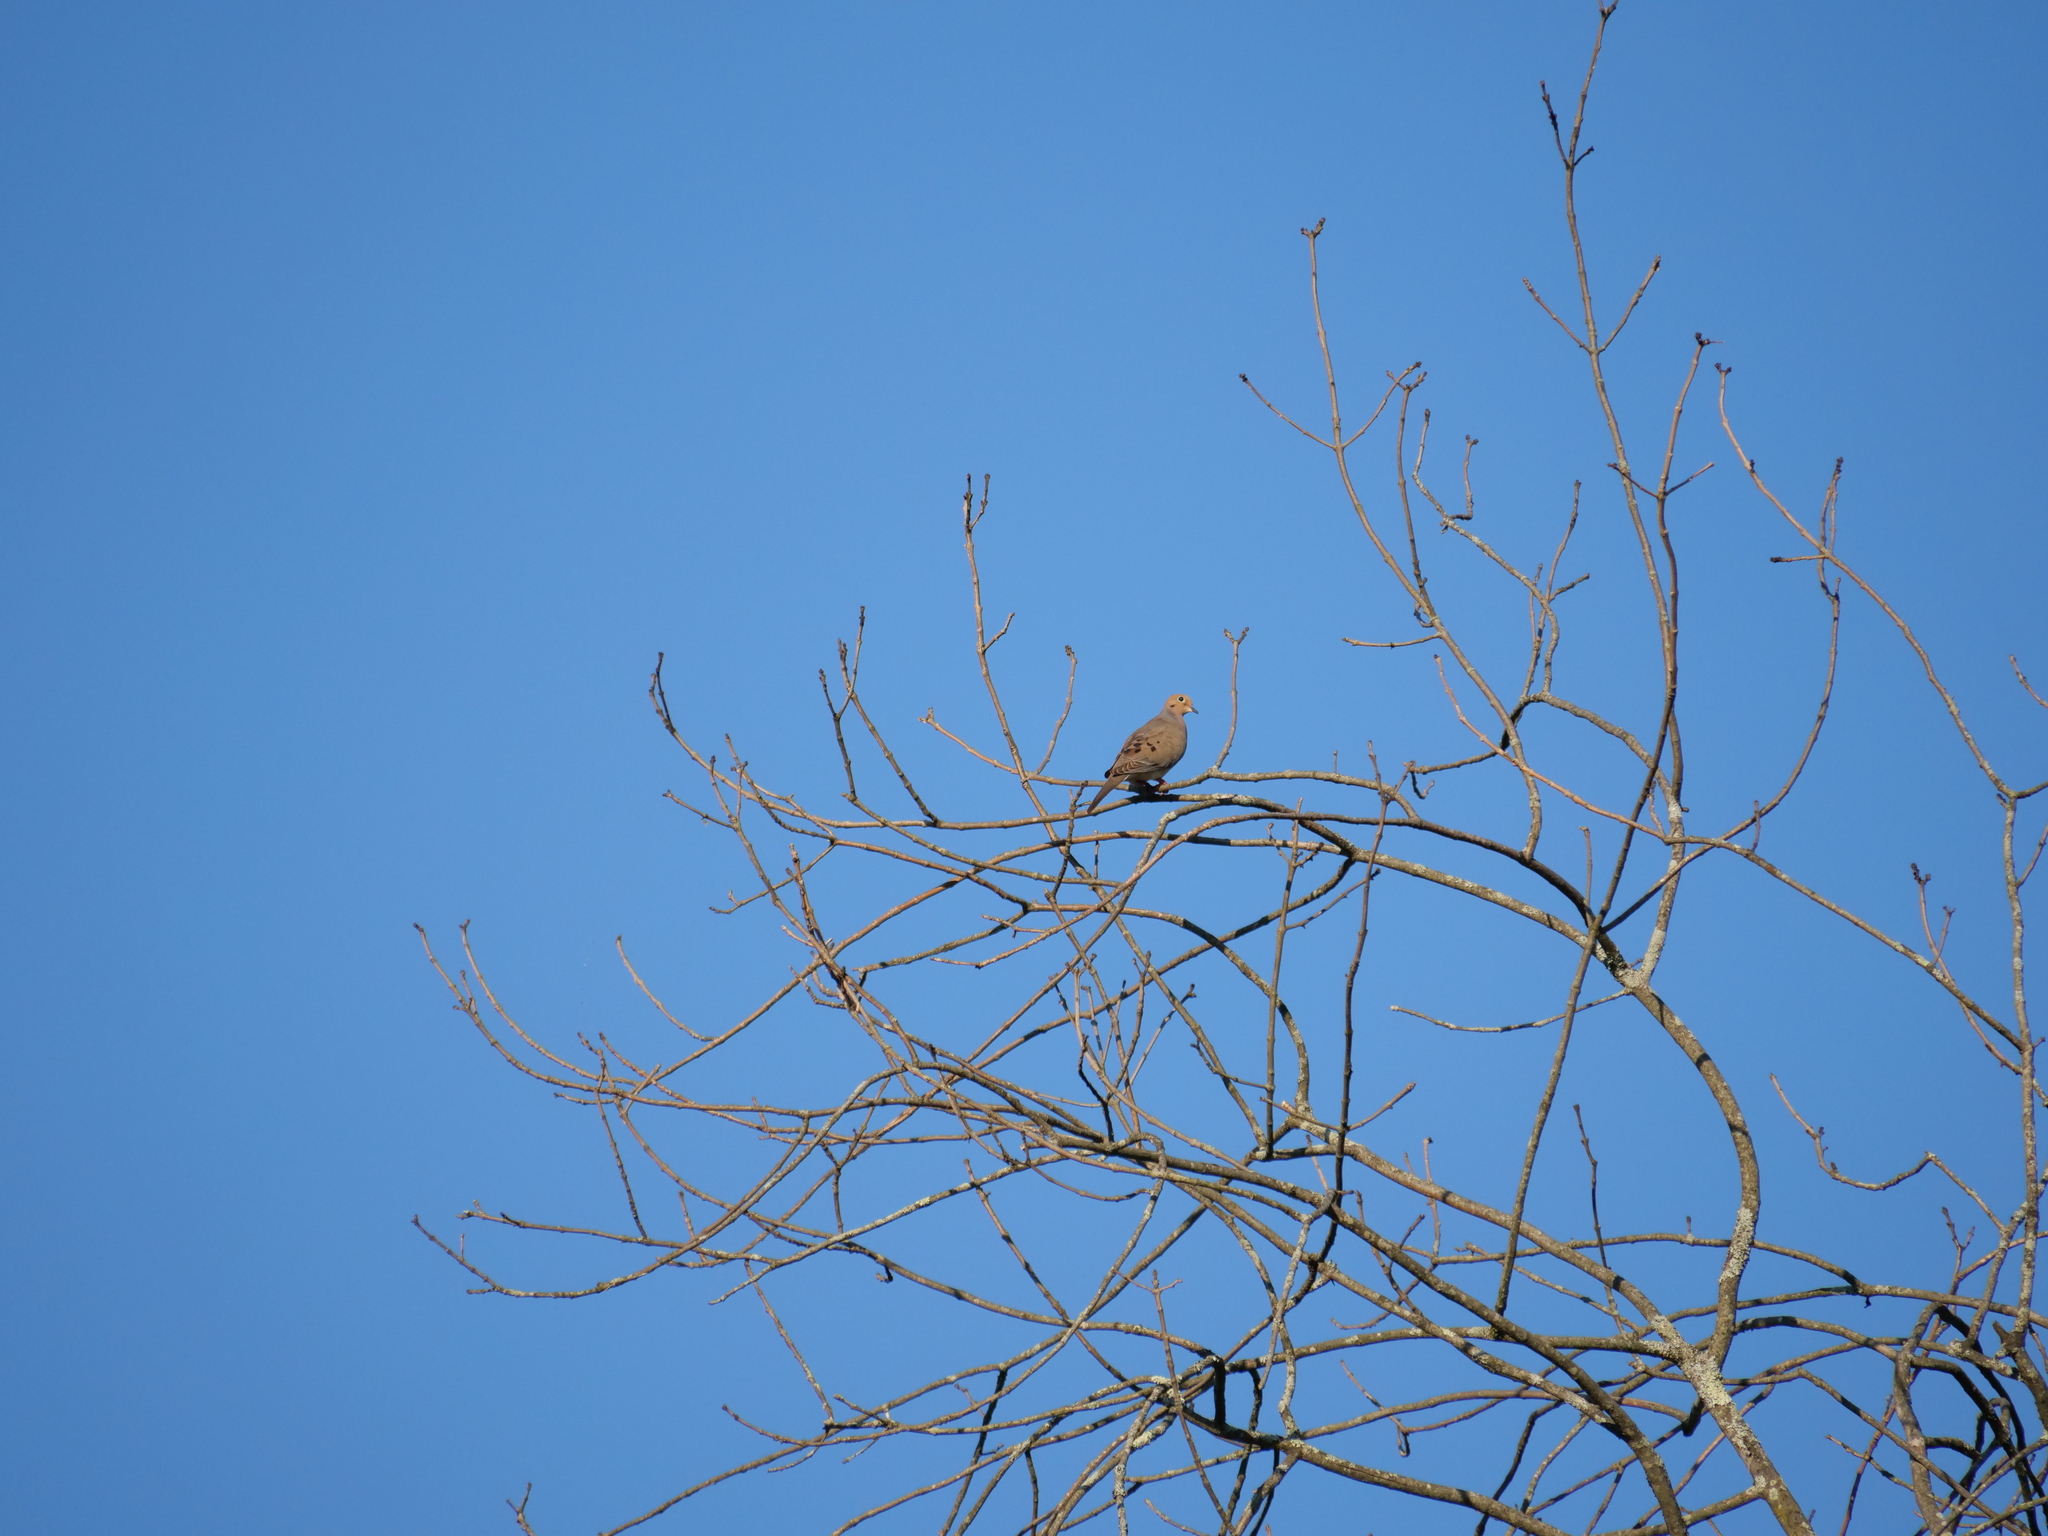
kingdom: Animalia
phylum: Chordata
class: Aves
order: Columbiformes
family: Columbidae
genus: Zenaida
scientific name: Zenaida macroura
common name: Mourning dove
